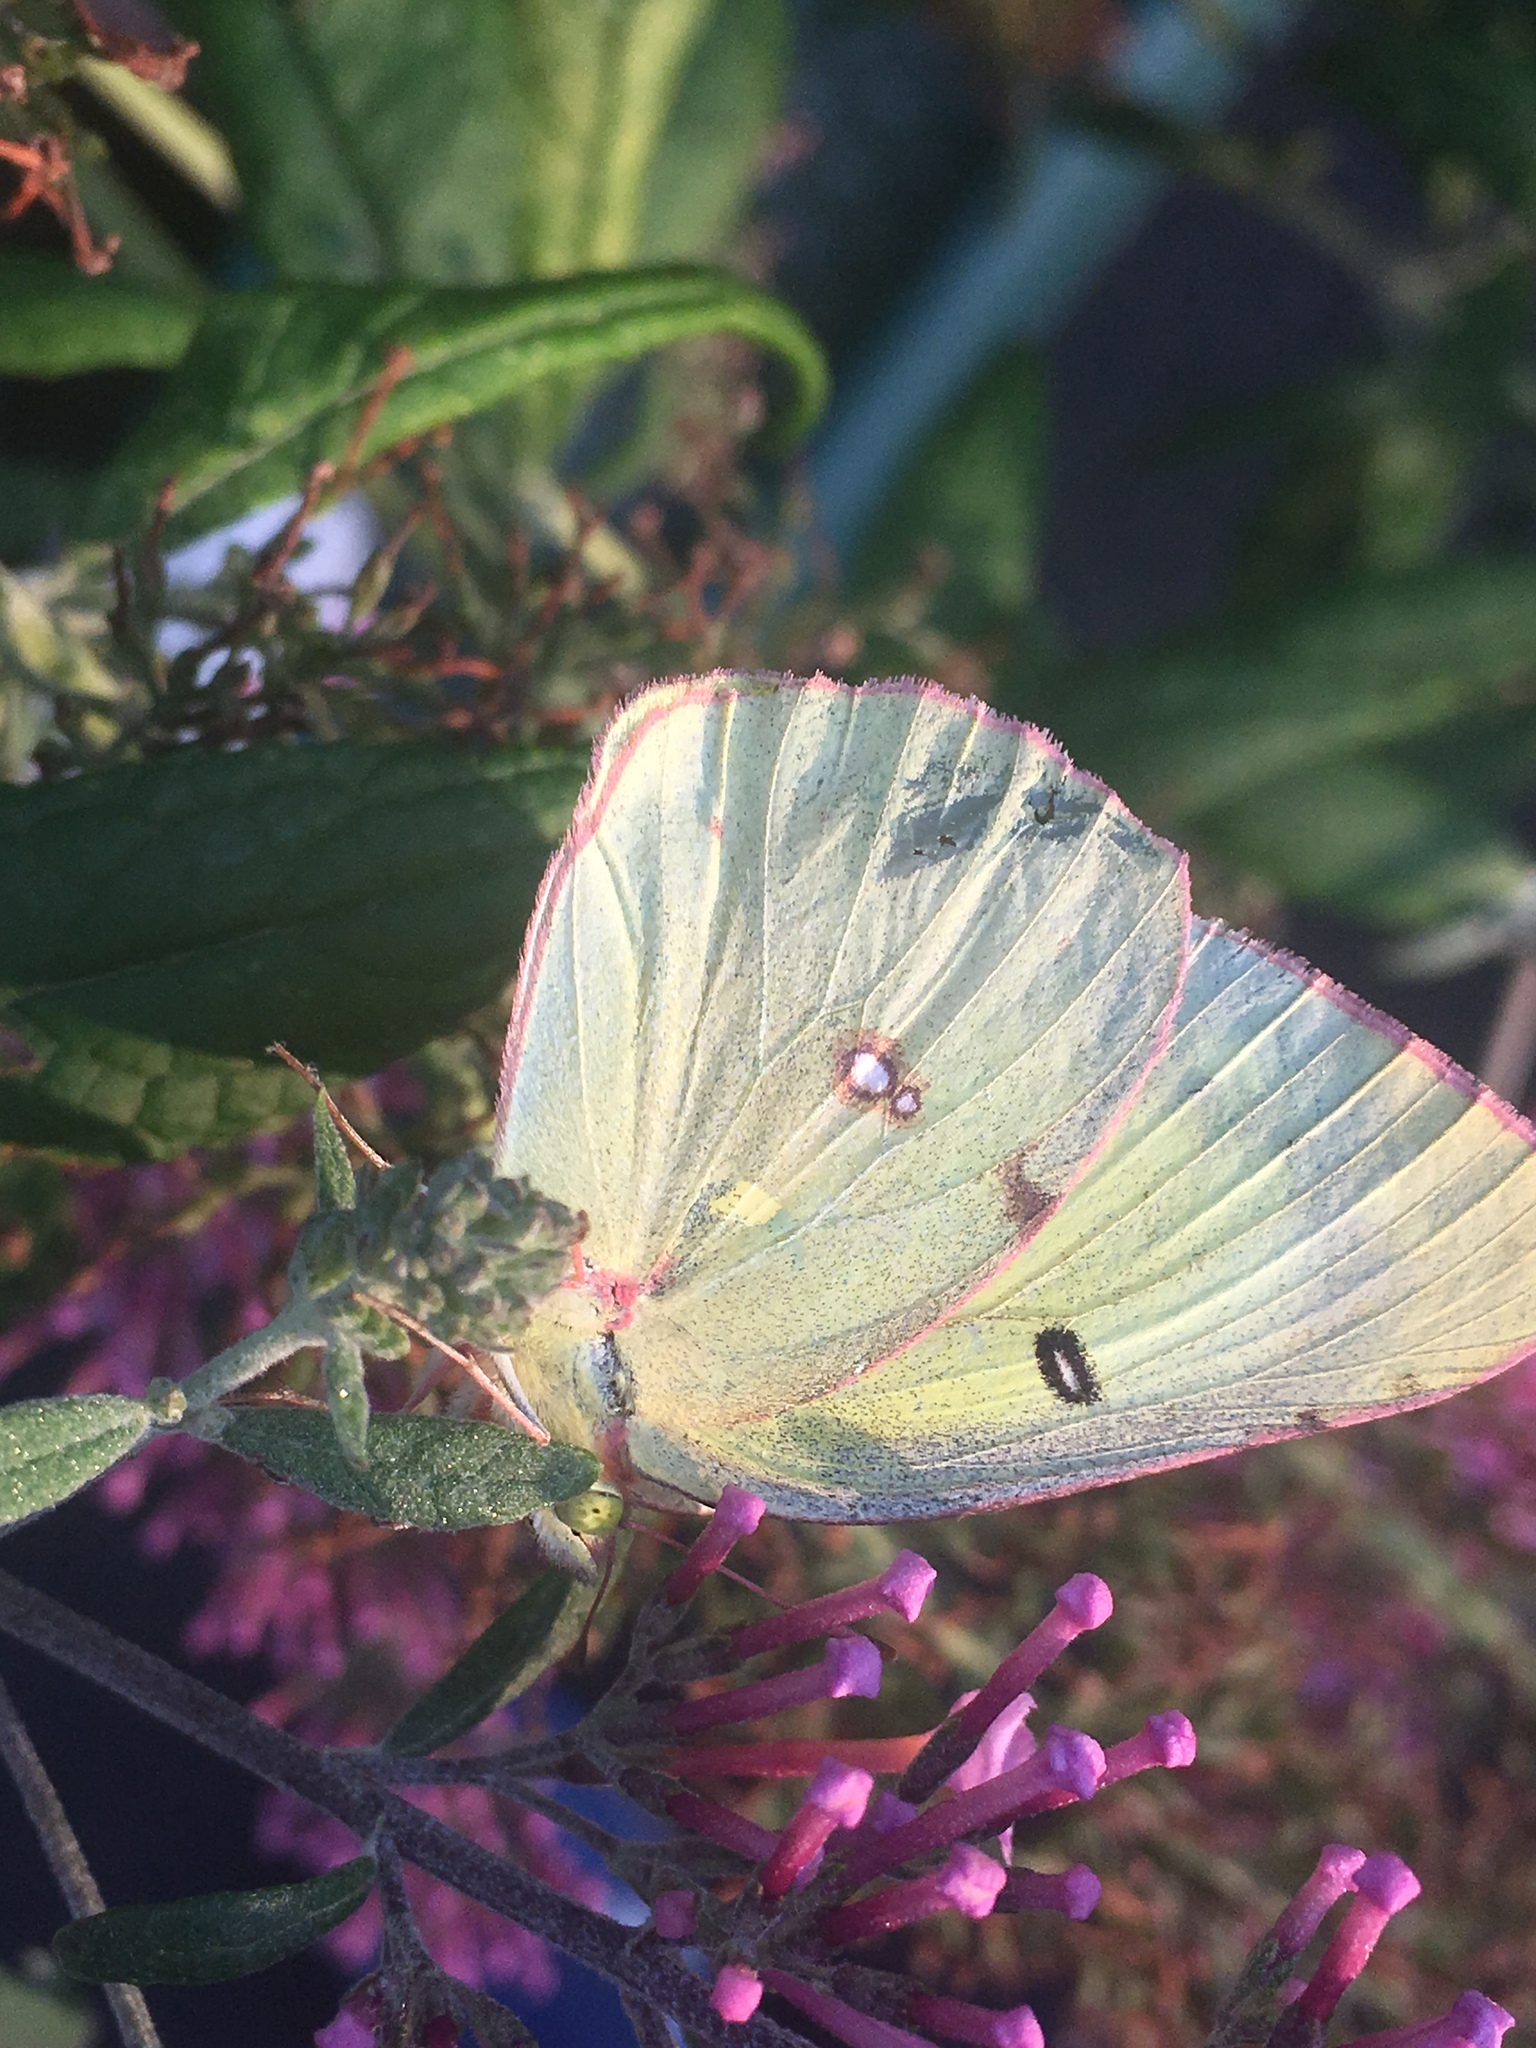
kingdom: Animalia
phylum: Arthropoda
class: Insecta
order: Lepidoptera
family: Pieridae
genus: Colias
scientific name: Colias philodice
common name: Clouded sulphur
